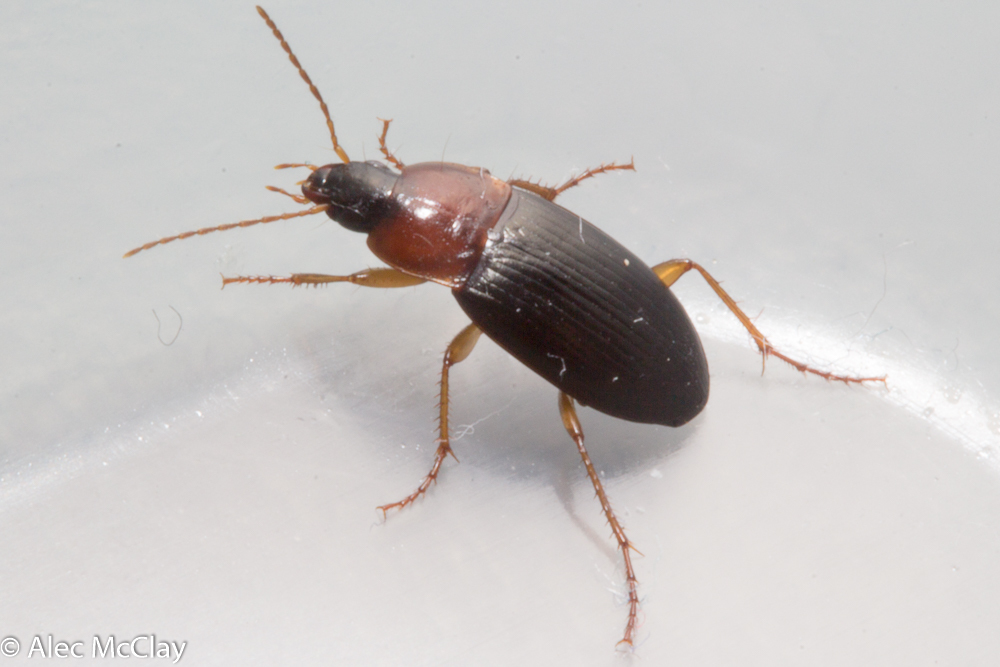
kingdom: Animalia
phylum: Arthropoda
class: Insecta
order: Coleoptera
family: Carabidae
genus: Calathus
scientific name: Calathus melanocephalus
